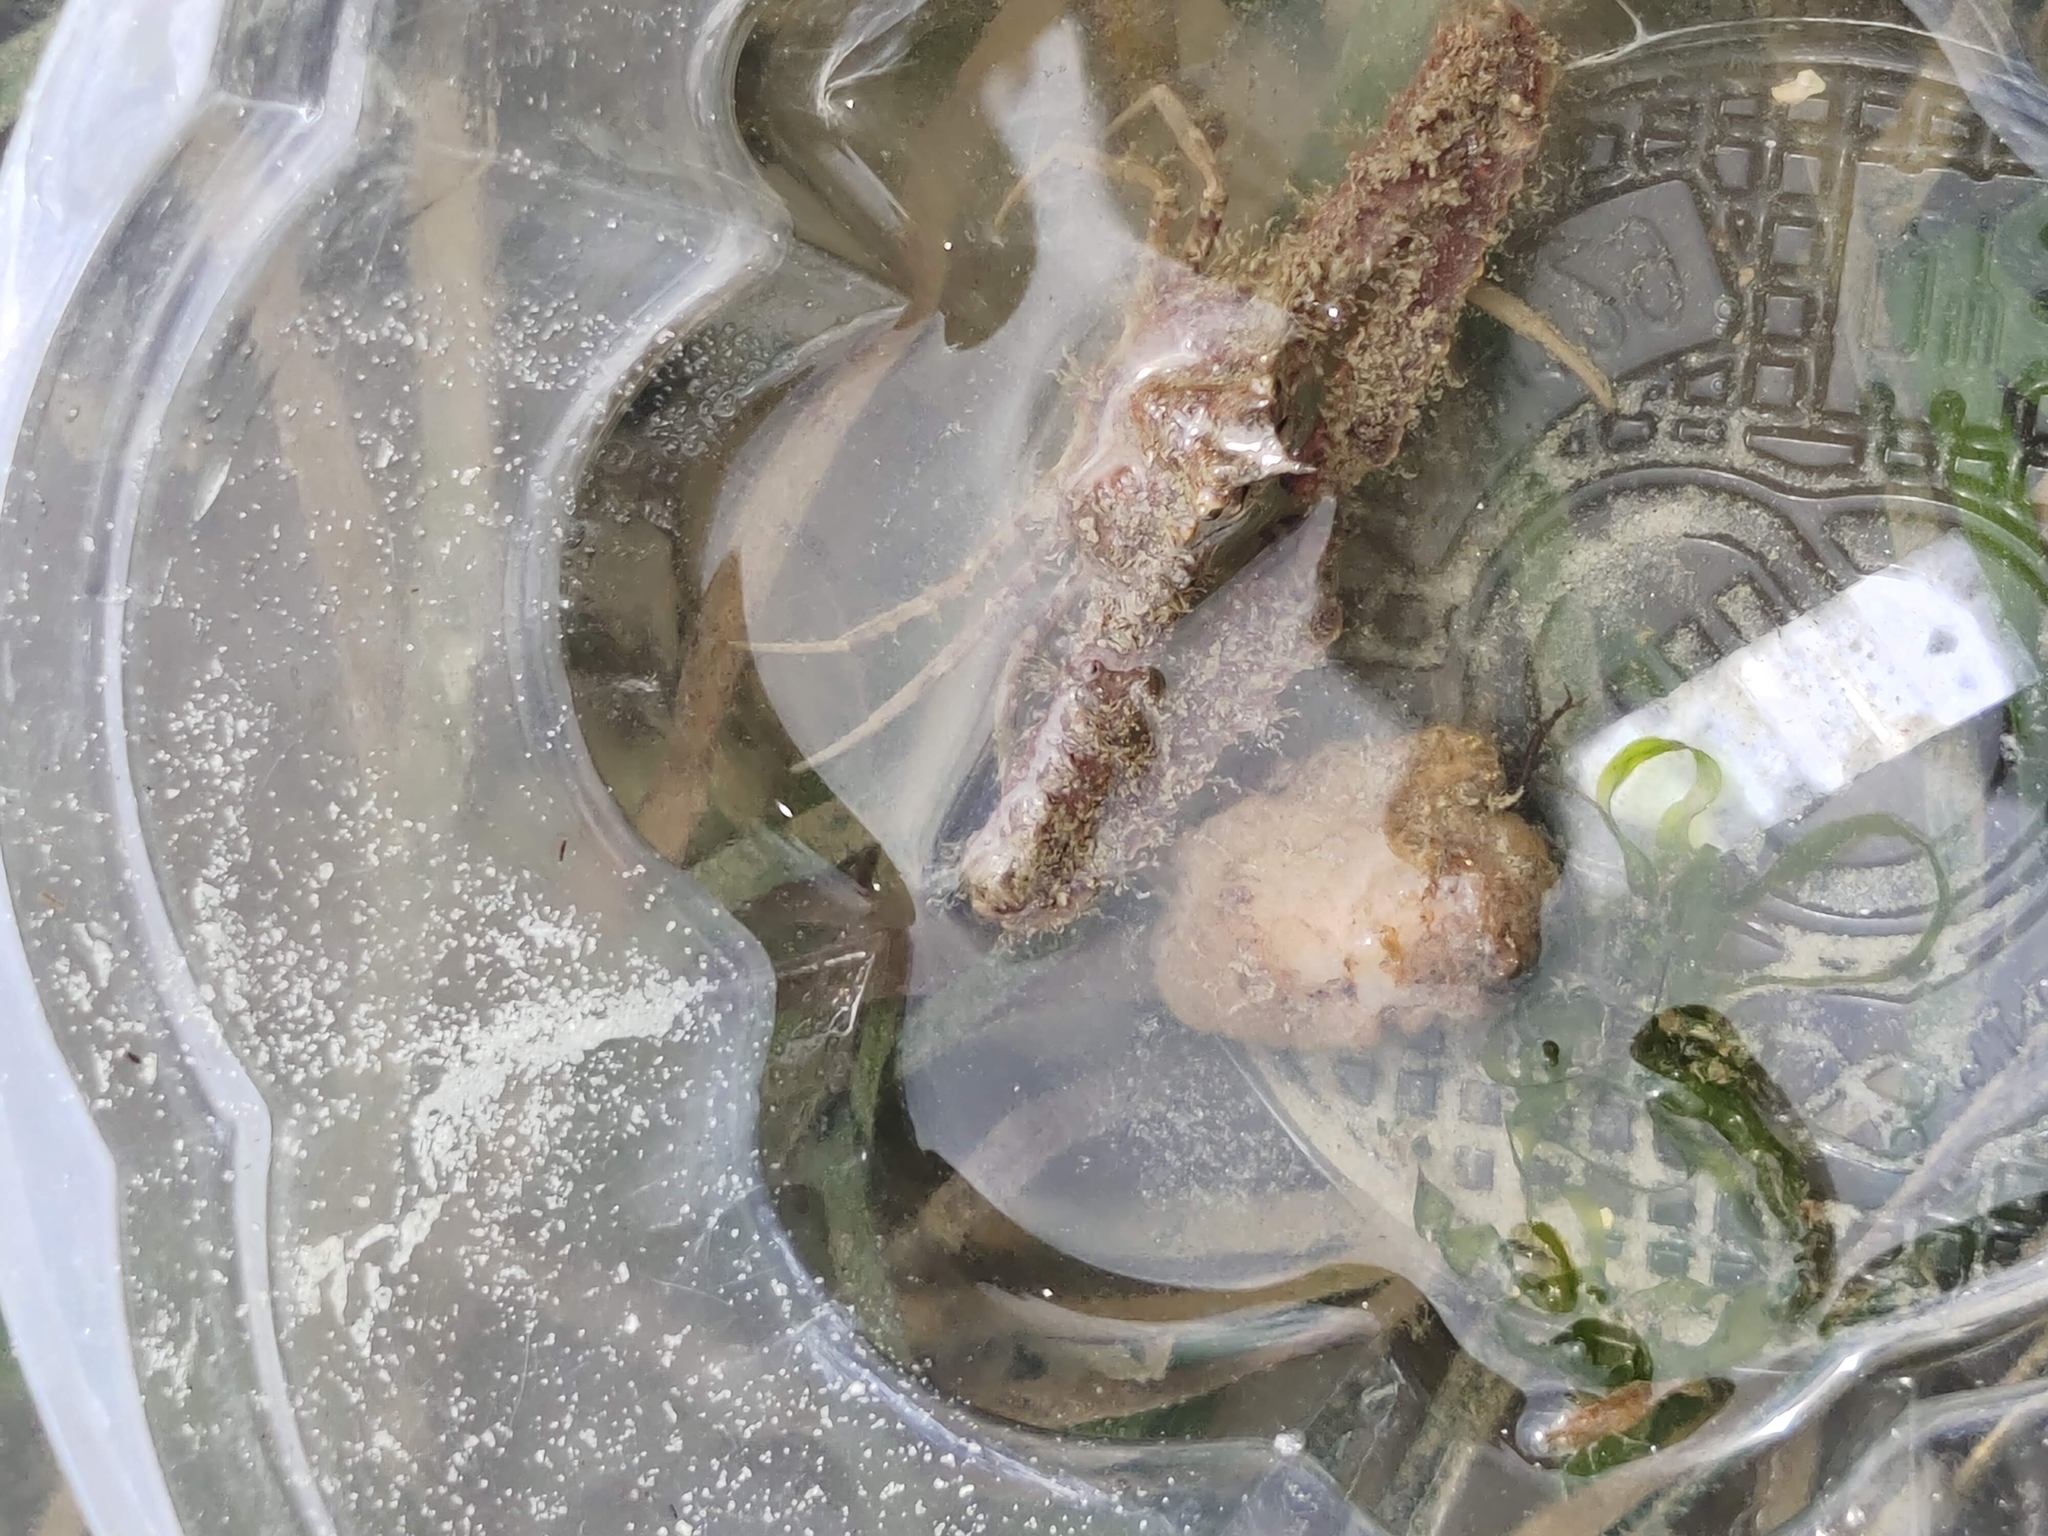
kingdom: Animalia
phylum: Arthropoda
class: Malacostraca
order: Decapoda
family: Parthenopidae
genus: Rhinolambrus
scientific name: Rhinolambrus pelagicus
